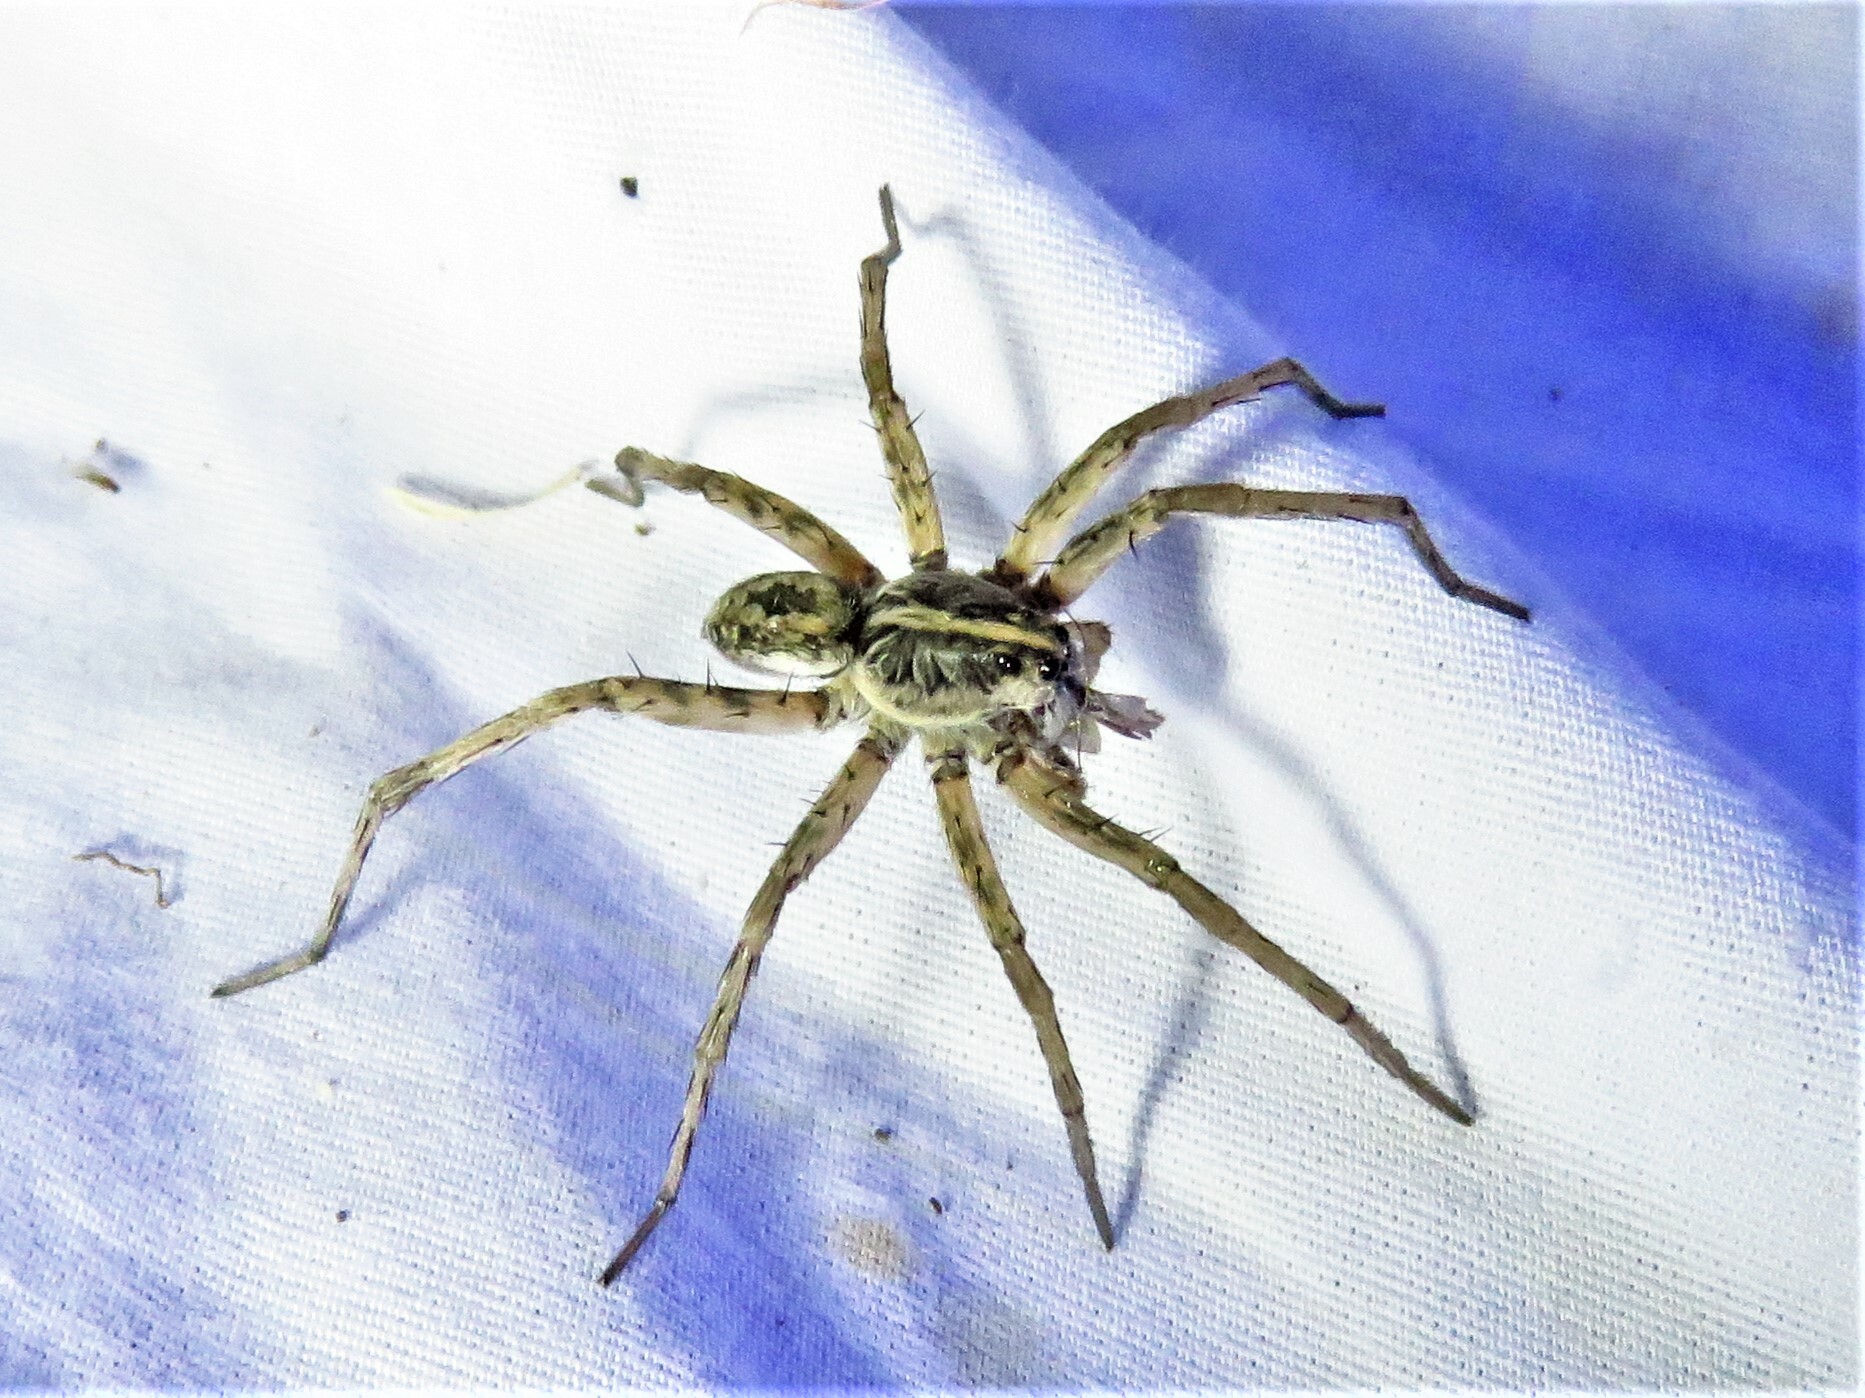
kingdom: Animalia
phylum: Arthropoda
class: Arachnida
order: Araneae
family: Lycosidae
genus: Hogna
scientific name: Hogna antelucana
